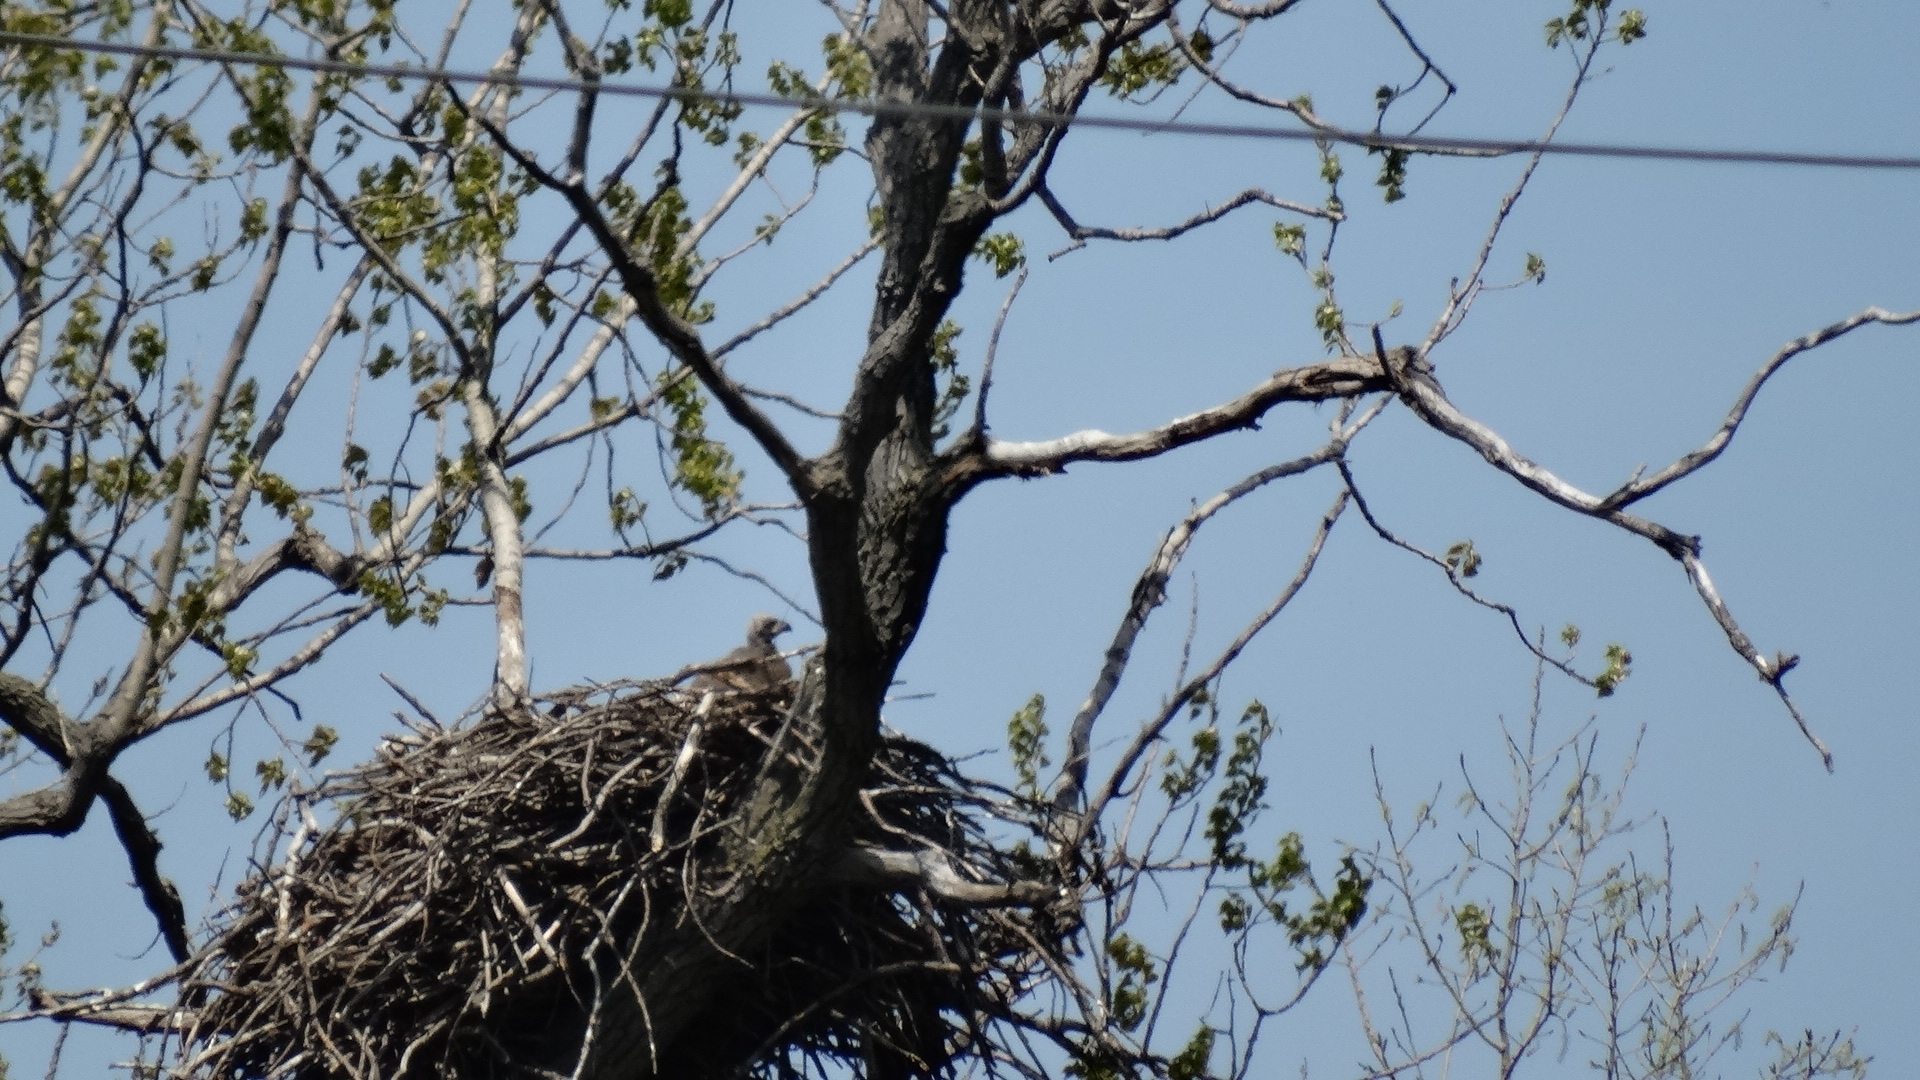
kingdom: Animalia
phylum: Chordata
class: Aves
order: Accipitriformes
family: Accipitridae
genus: Haliaeetus
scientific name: Haliaeetus leucocephalus
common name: Bald eagle
